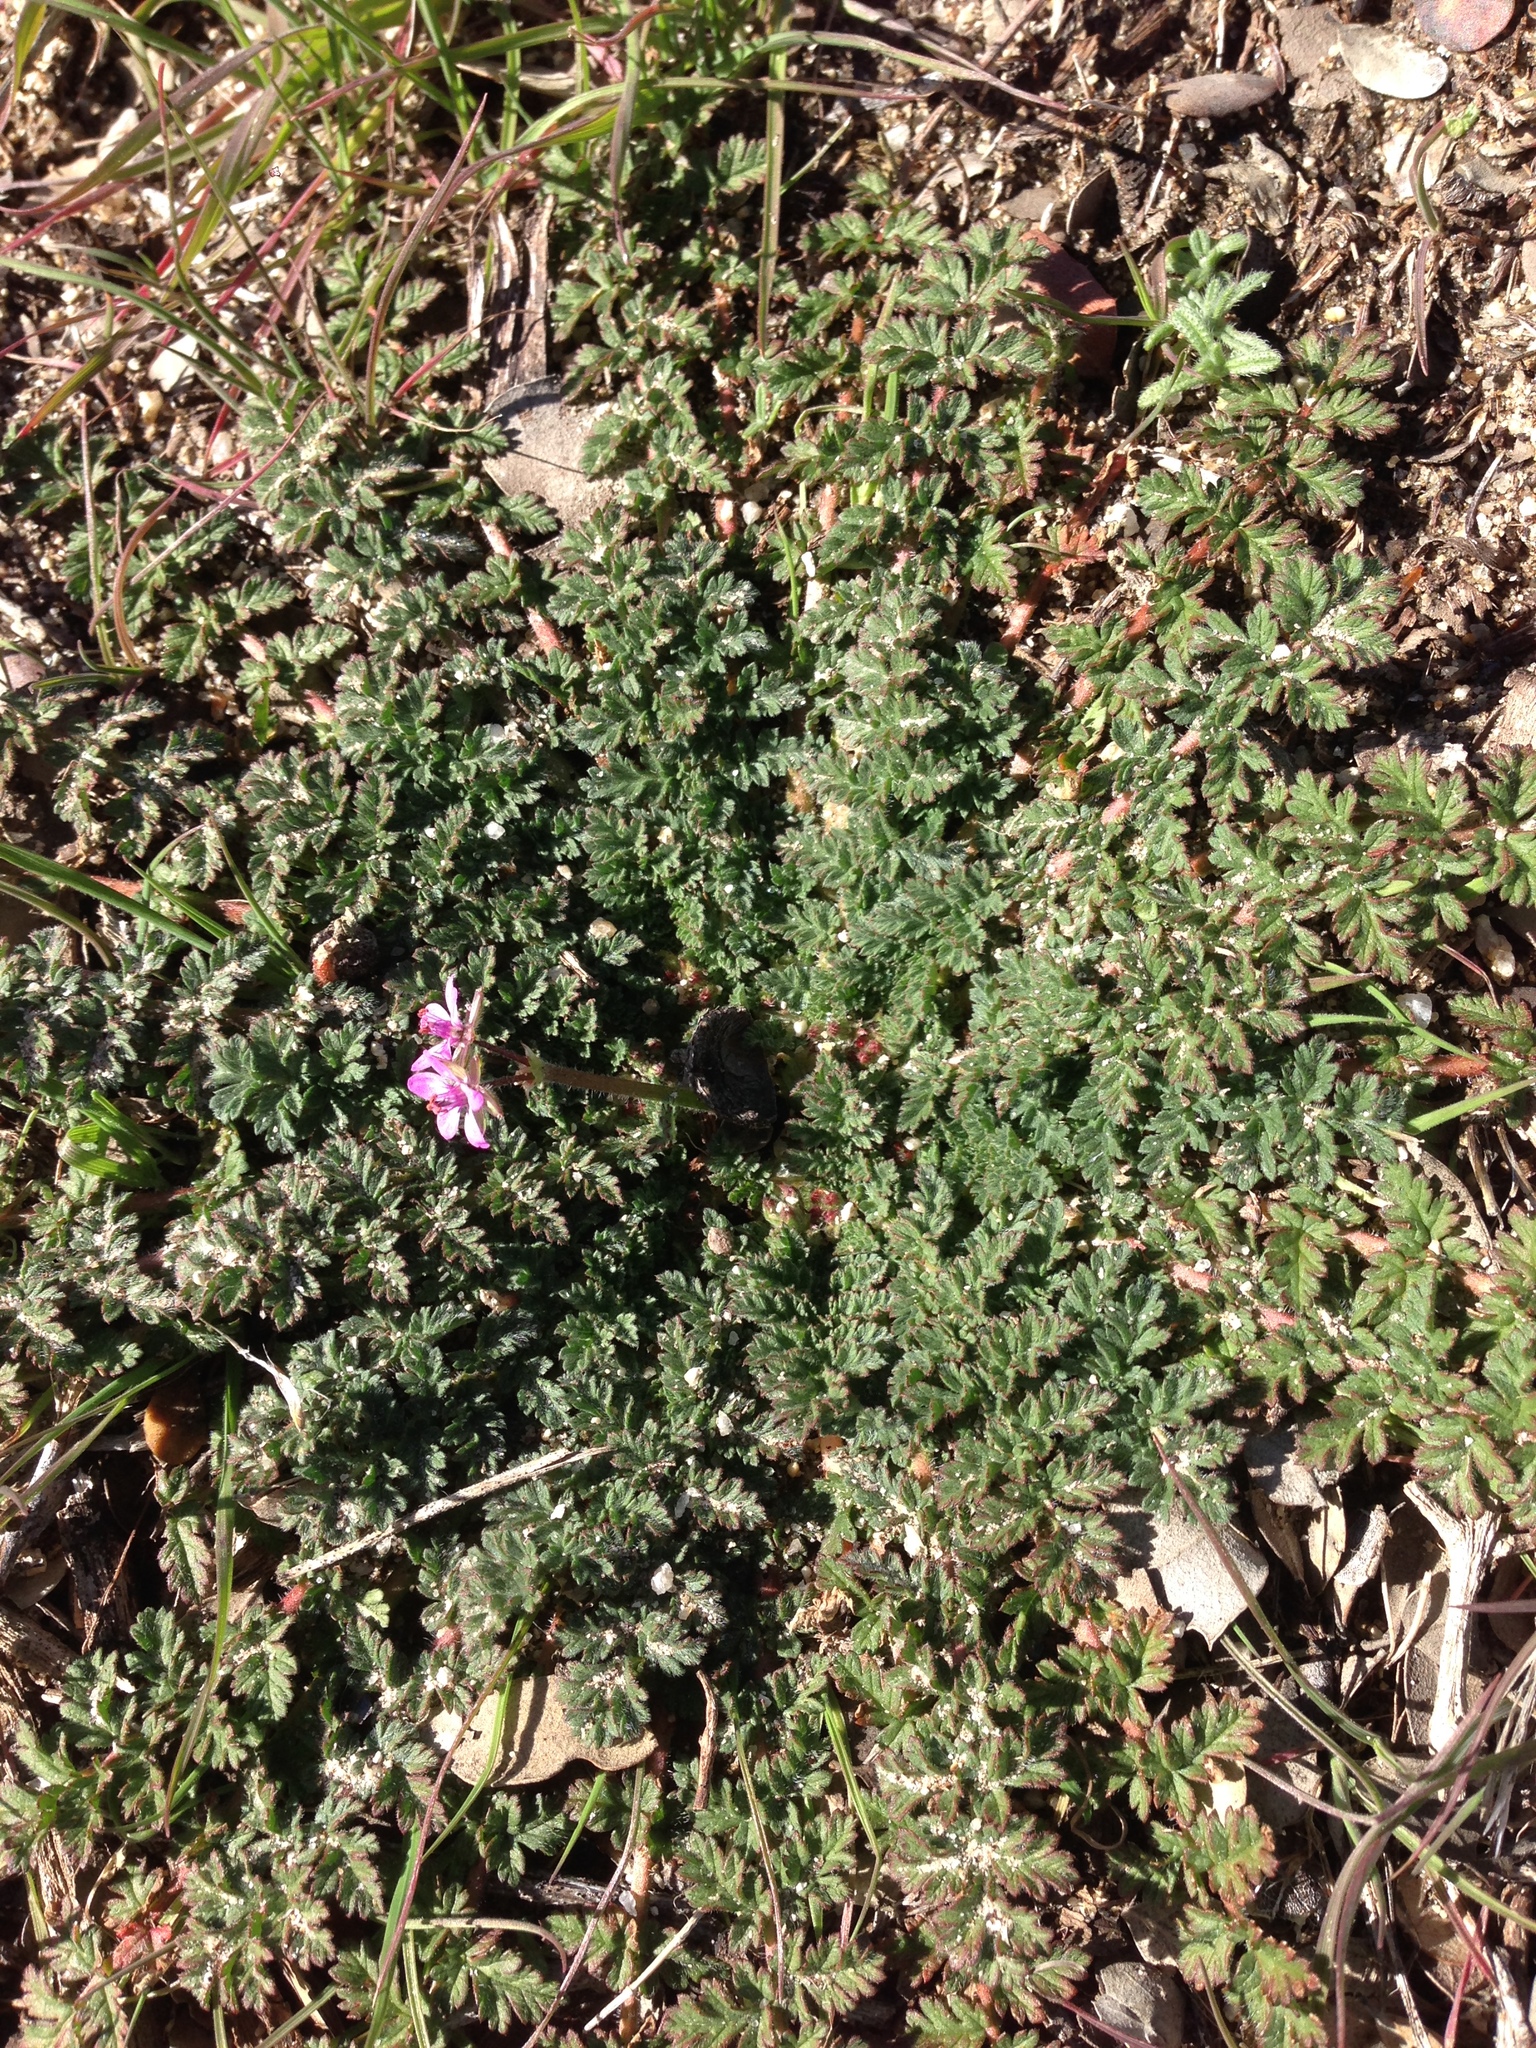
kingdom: Plantae
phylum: Tracheophyta
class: Magnoliopsida
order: Geraniales
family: Geraniaceae
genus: Erodium
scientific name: Erodium cicutarium
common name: Common stork's-bill
